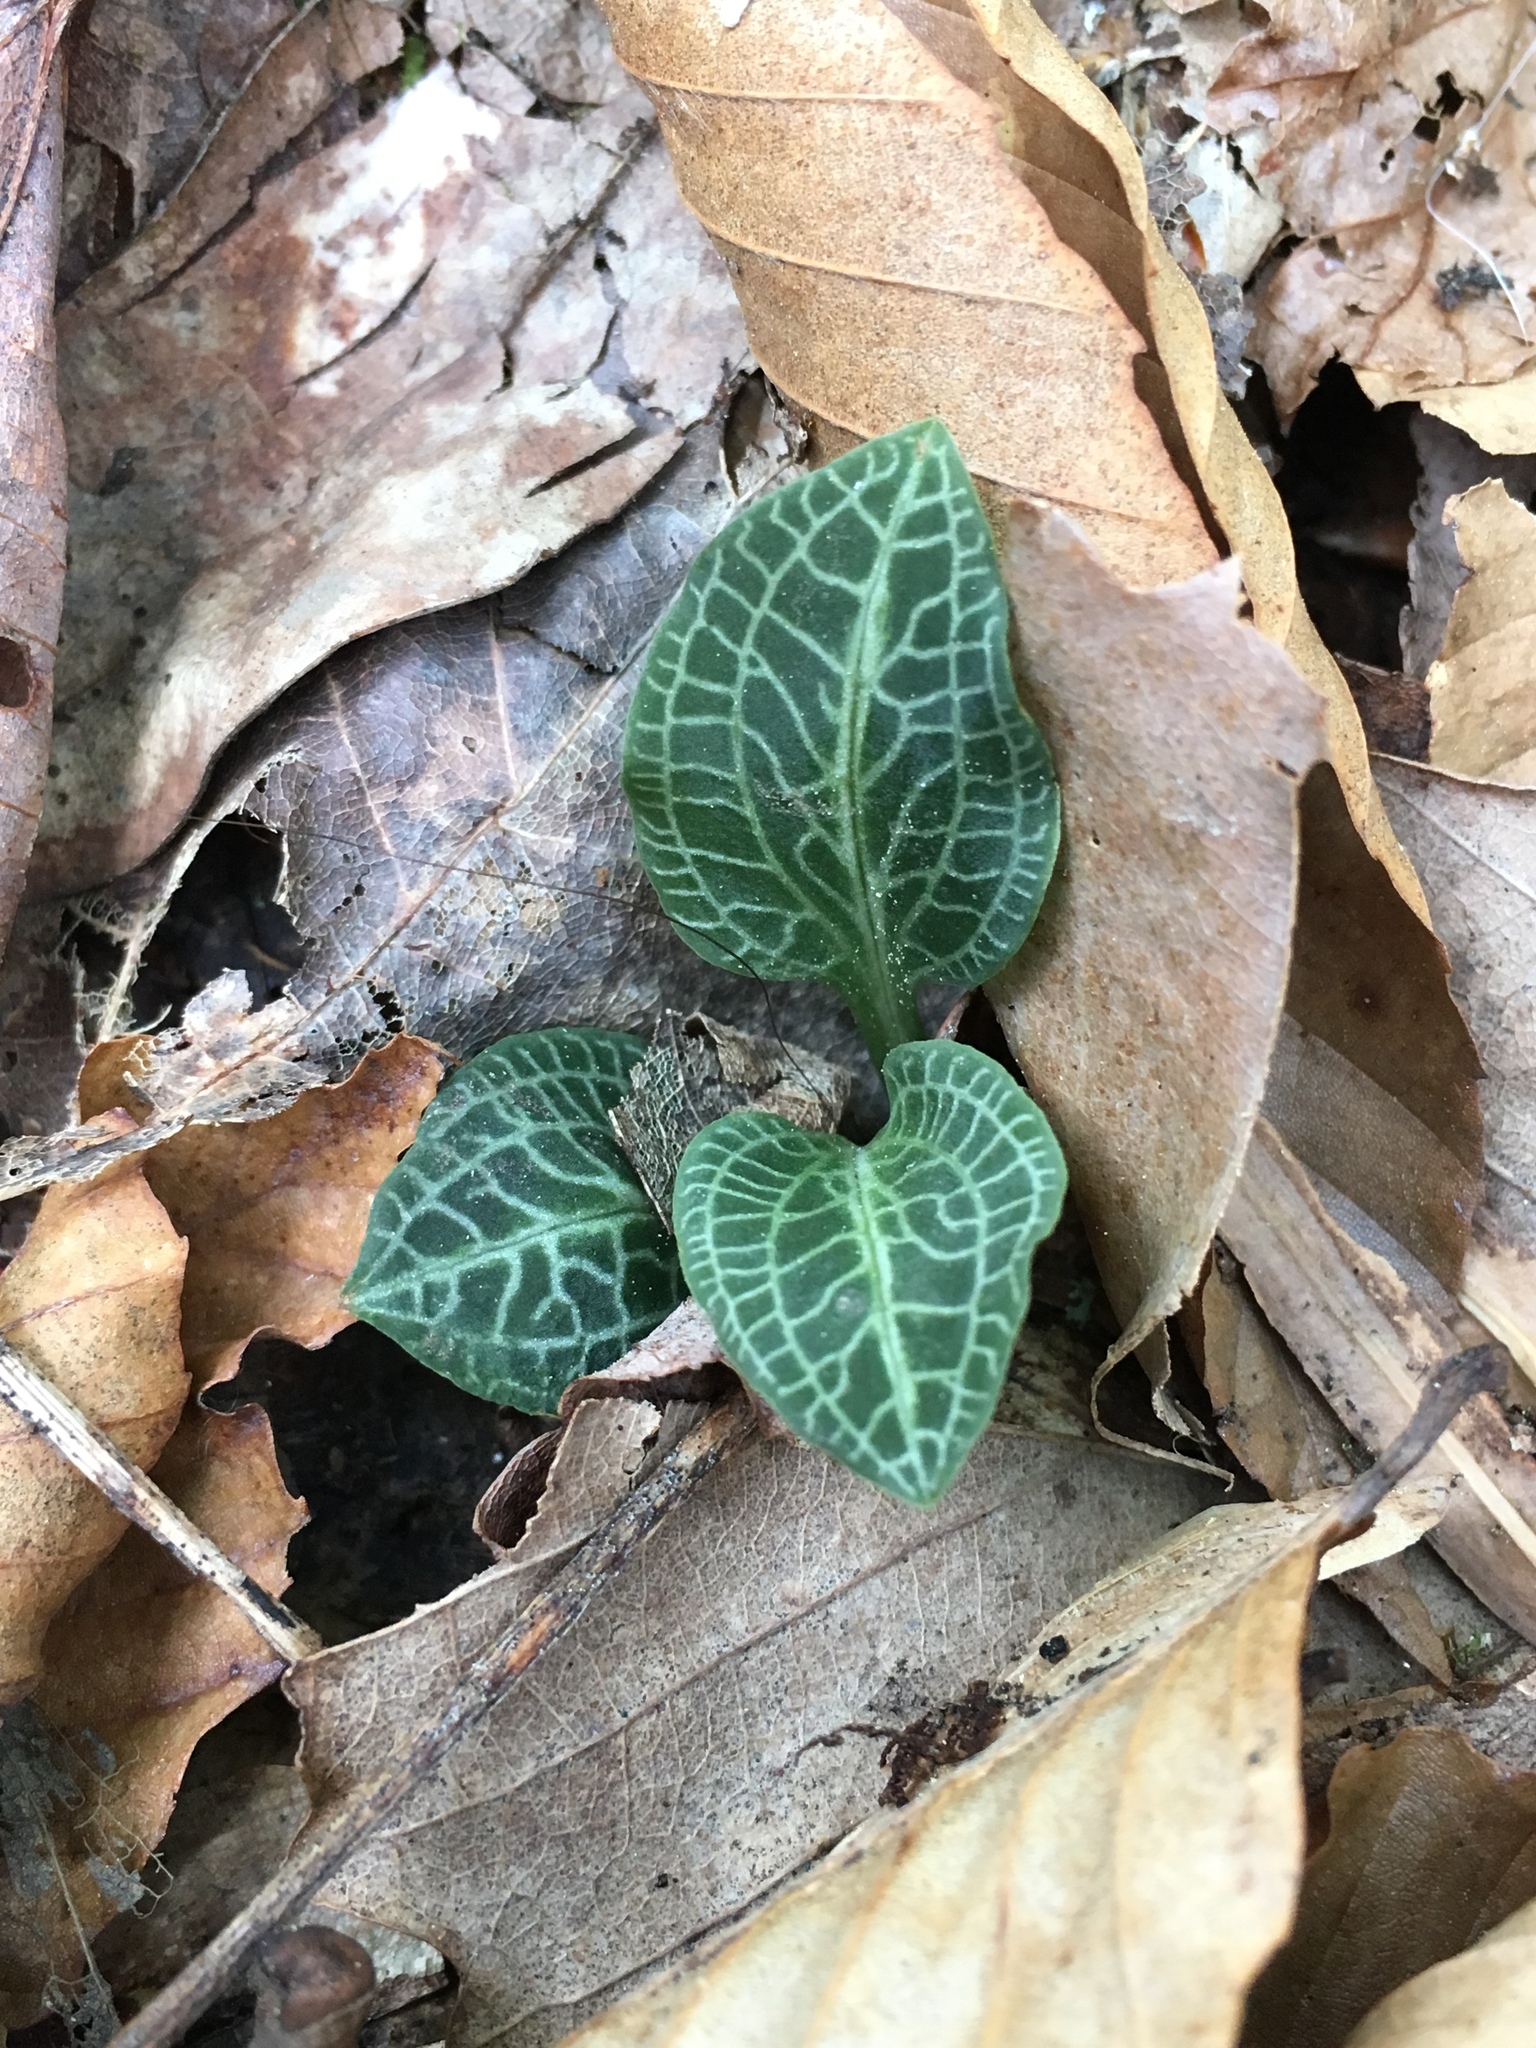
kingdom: Plantae
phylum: Tracheophyta
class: Liliopsida
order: Asparagales
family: Orchidaceae
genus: Goodyera
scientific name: Goodyera pubescens
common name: Downy rattlesnake-plantain
